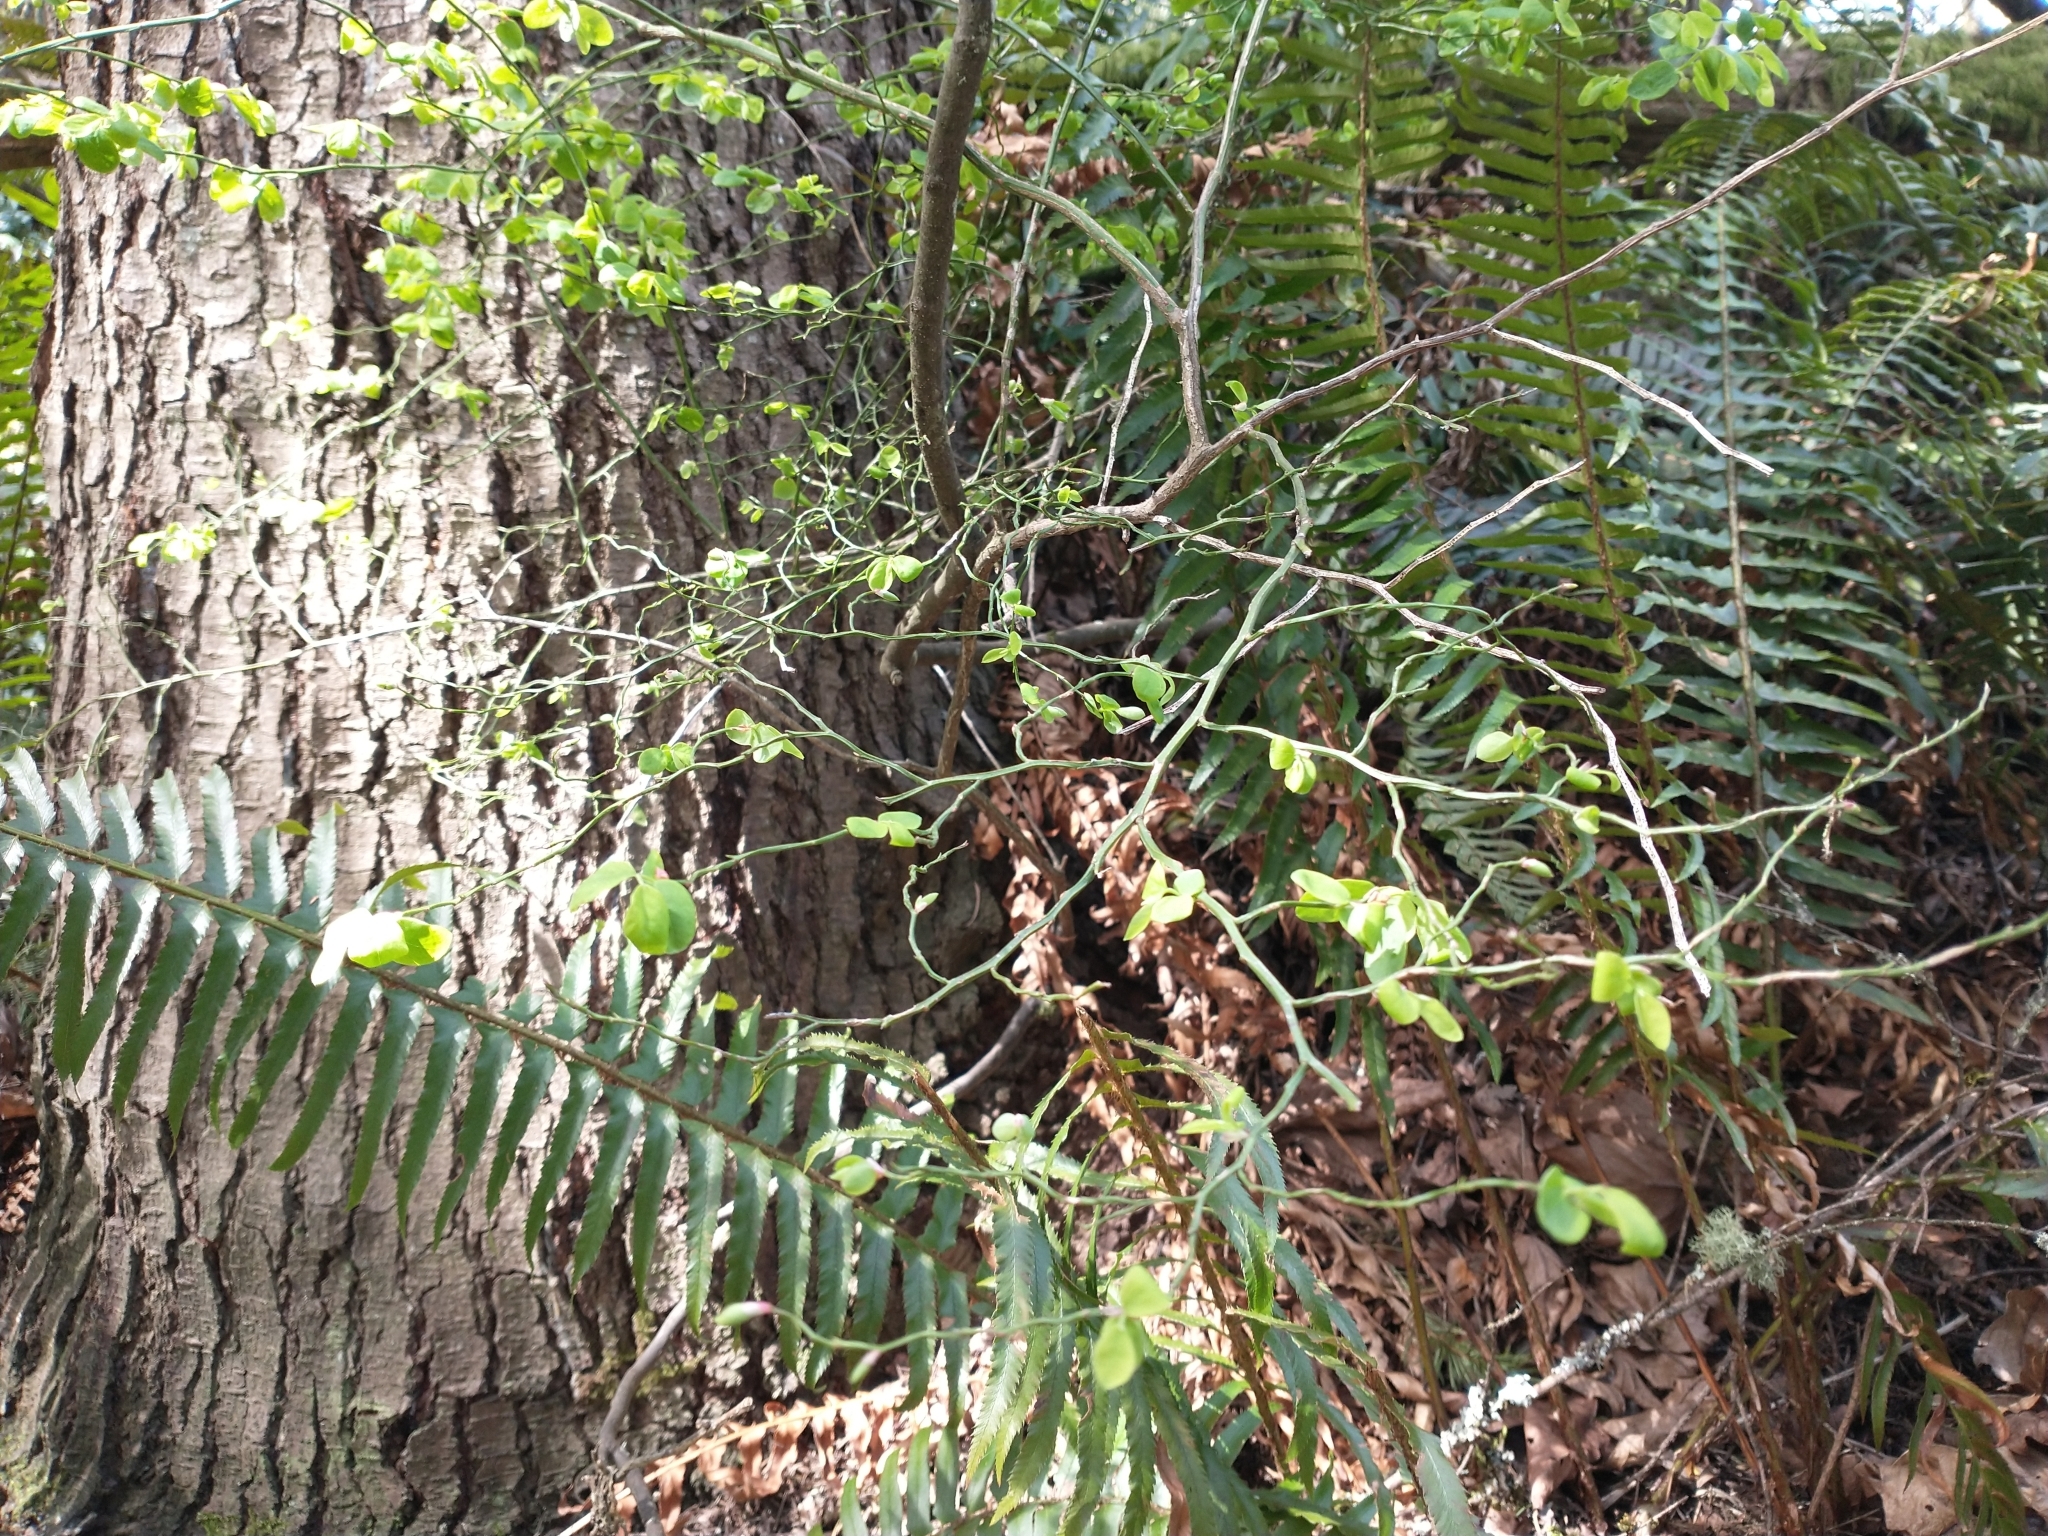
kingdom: Plantae
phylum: Tracheophyta
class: Magnoliopsida
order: Ericales
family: Ericaceae
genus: Vaccinium
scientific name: Vaccinium parvifolium
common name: Red-huckleberry
